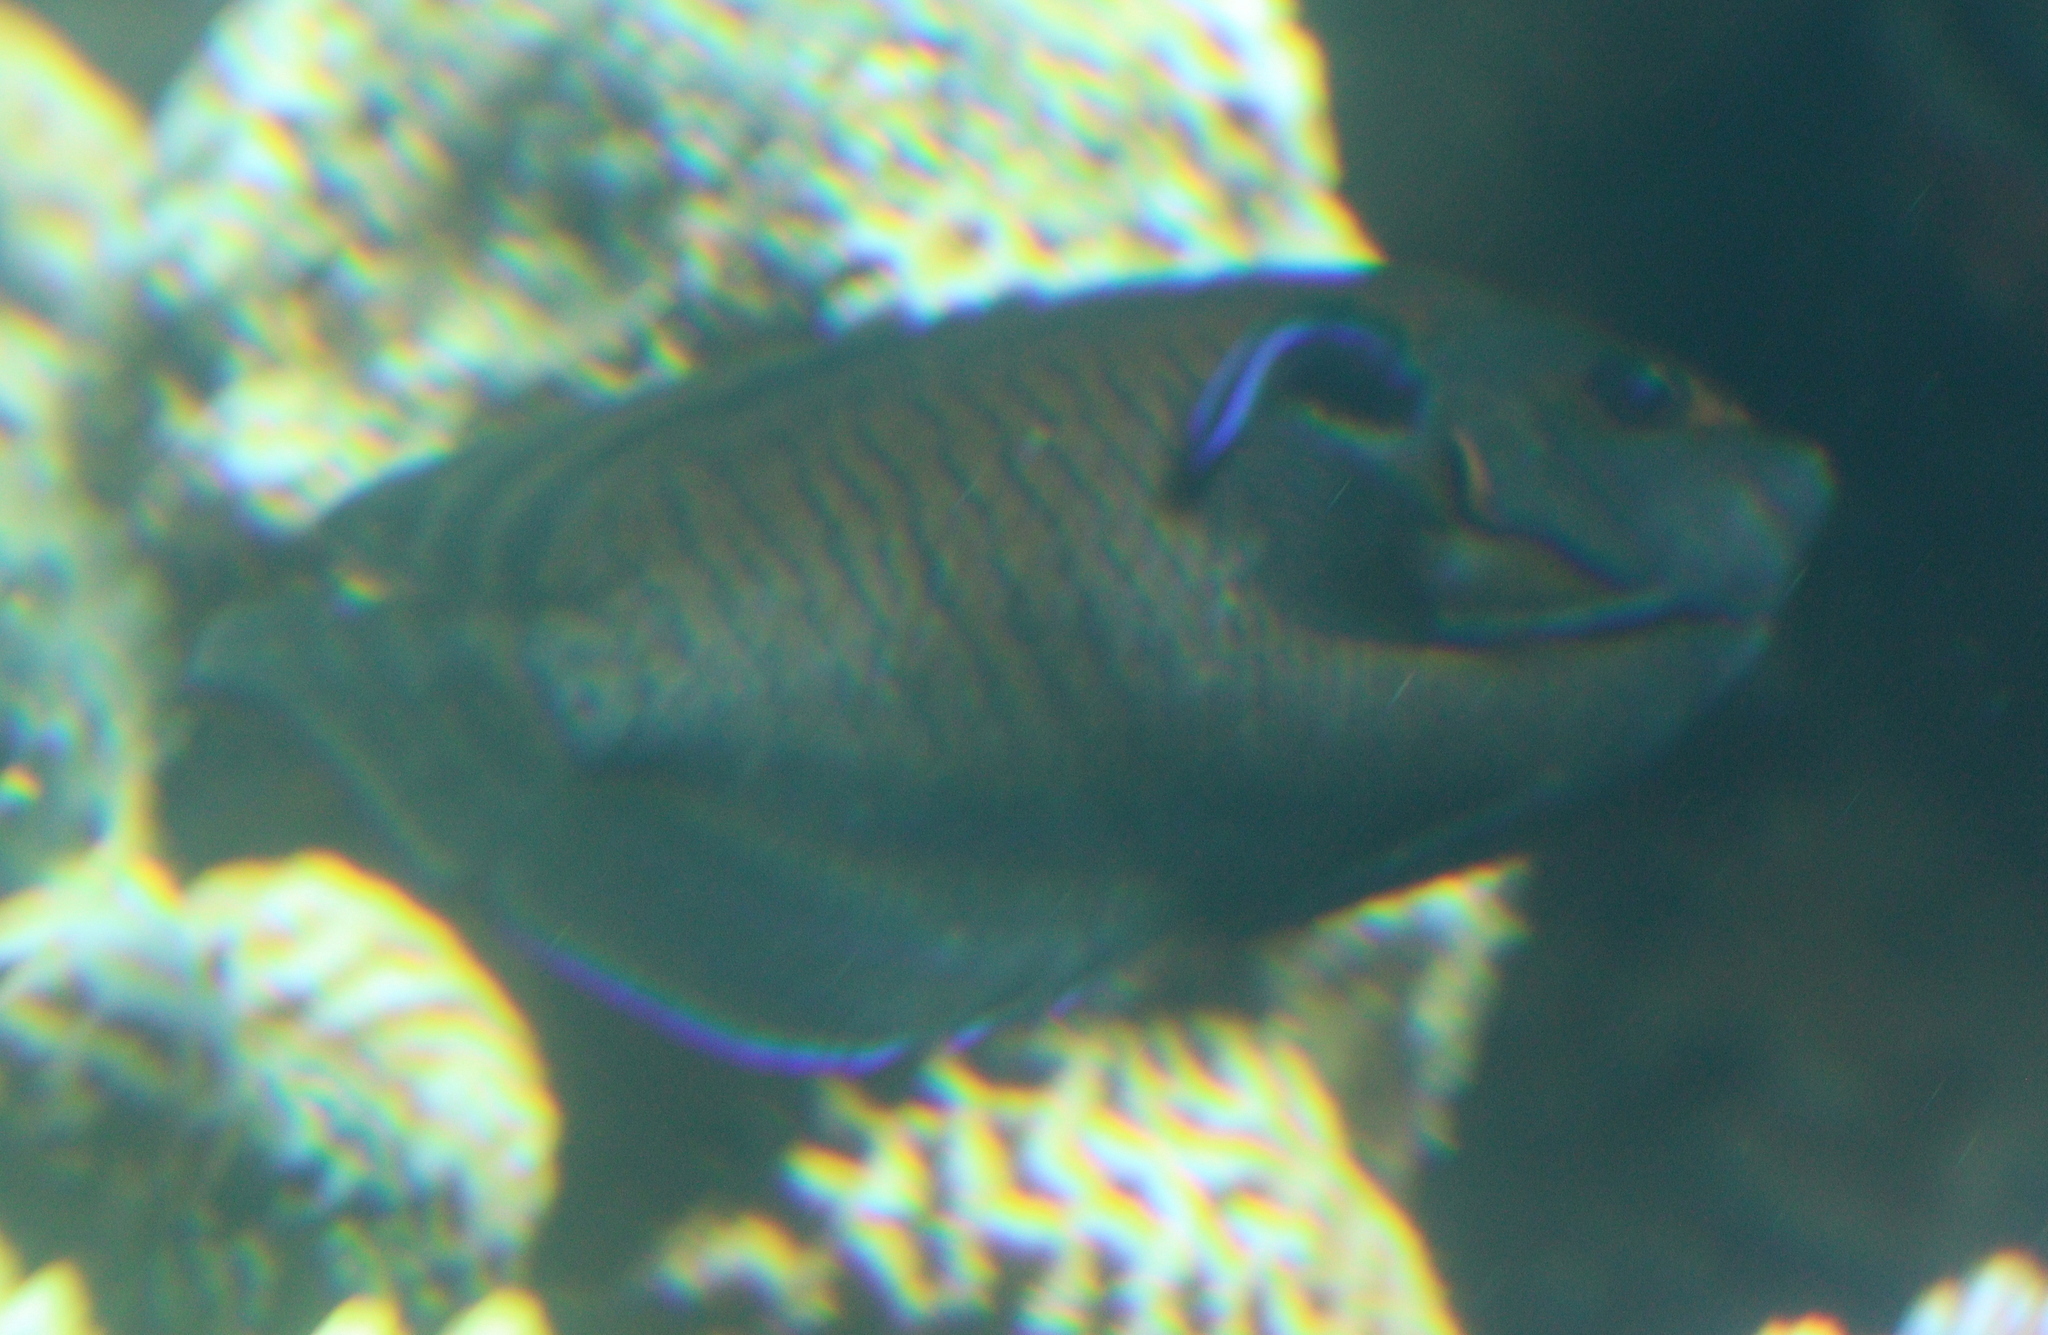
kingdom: Animalia
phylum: Chordata
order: Perciformes
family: Pomacanthidae
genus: Centropyge
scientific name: Centropyge multispinis
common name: Many-spined angelfish
